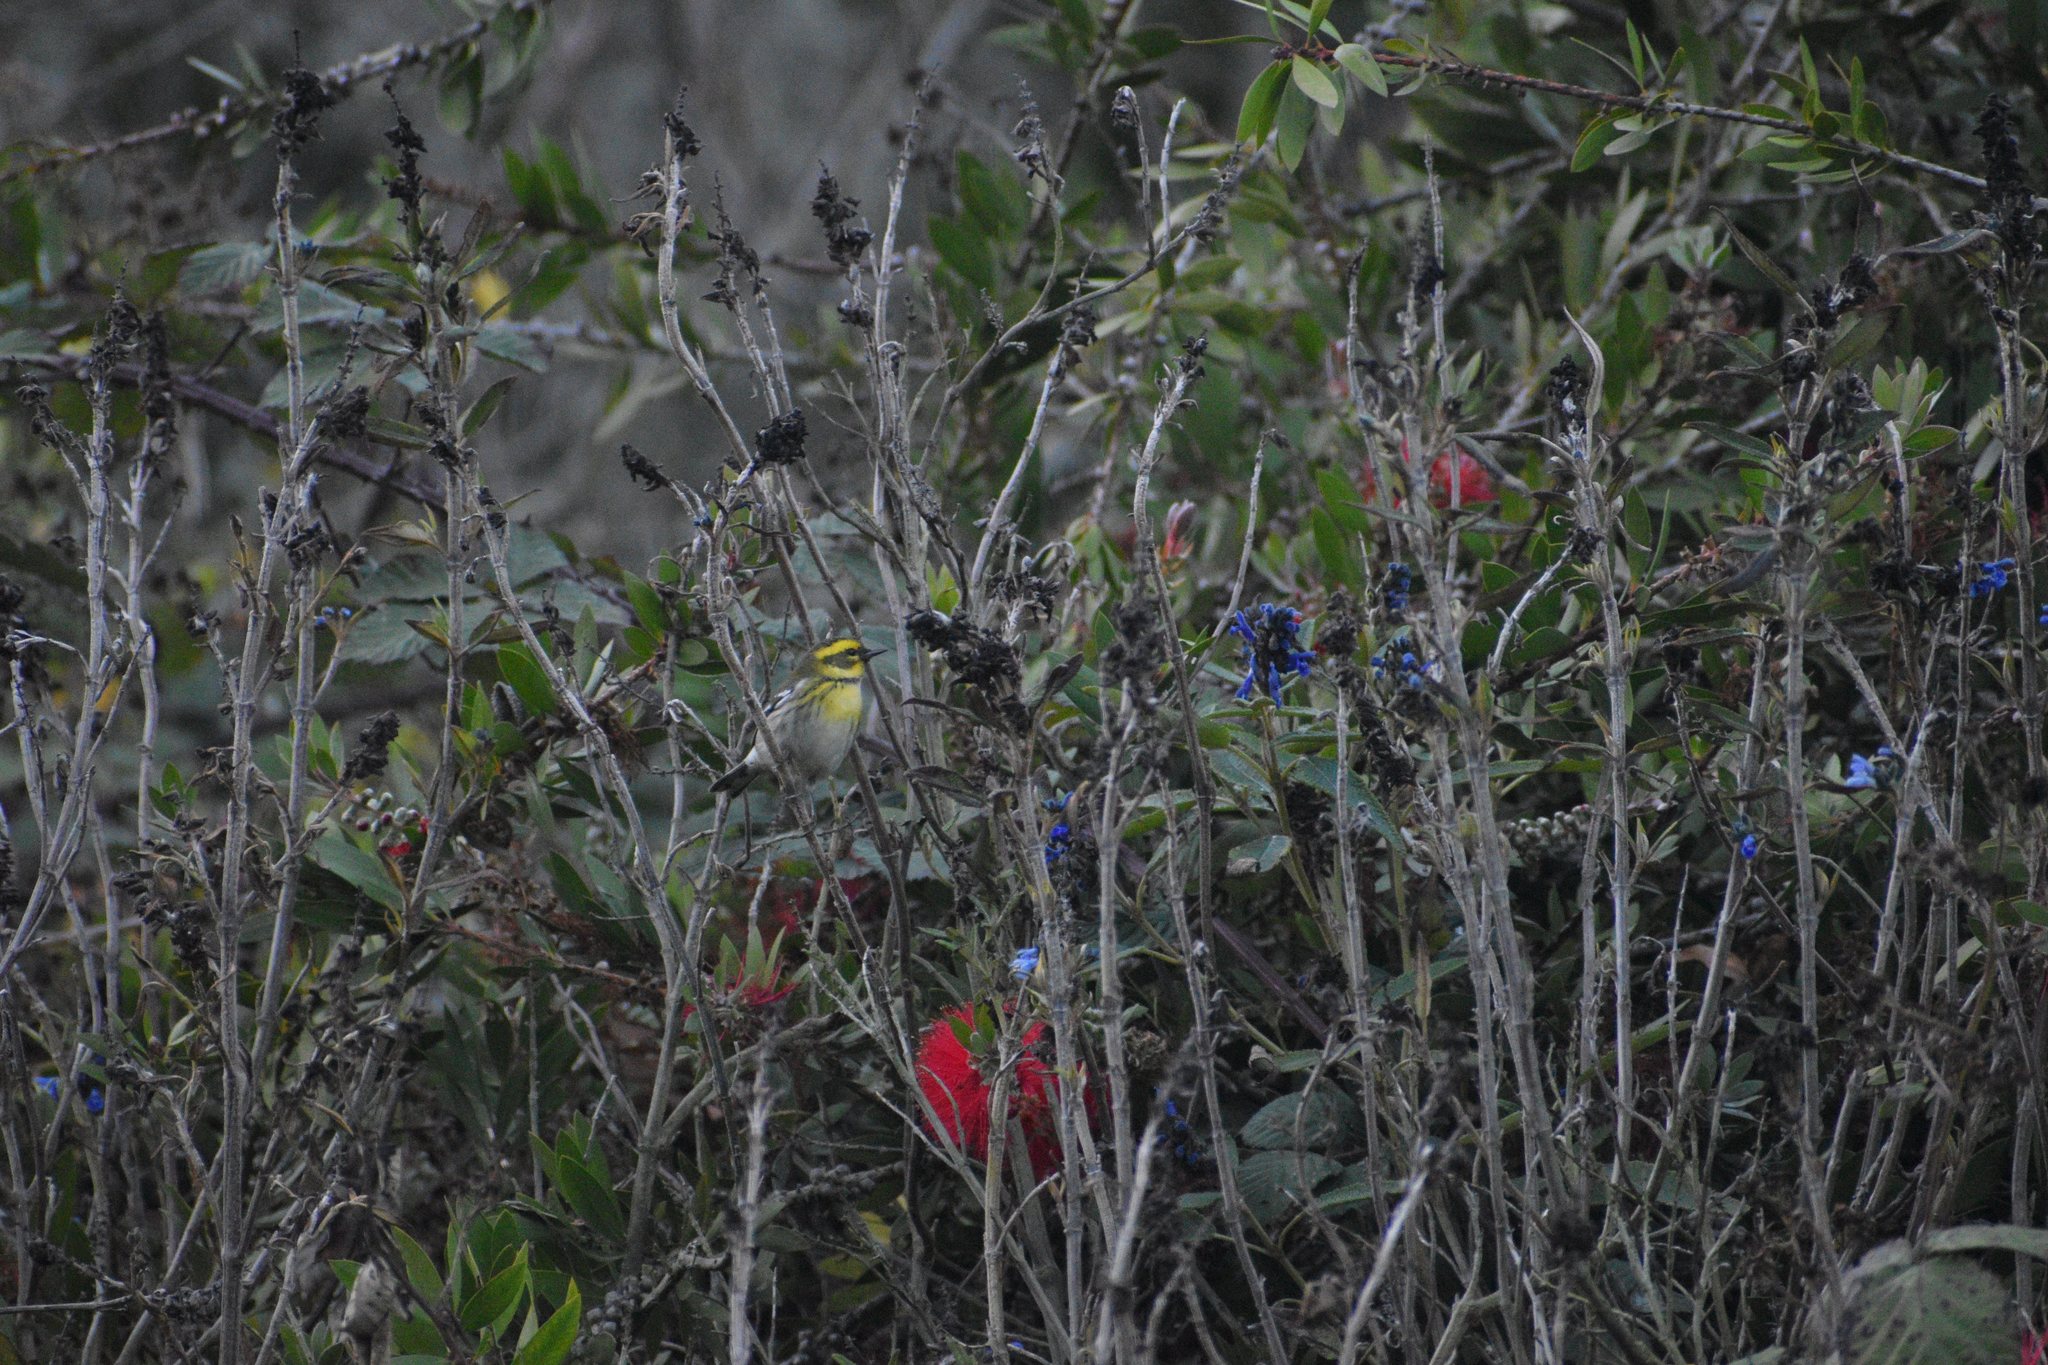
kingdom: Animalia
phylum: Chordata
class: Aves
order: Passeriformes
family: Parulidae
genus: Setophaga
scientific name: Setophaga townsendi
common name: Townsend's warbler
